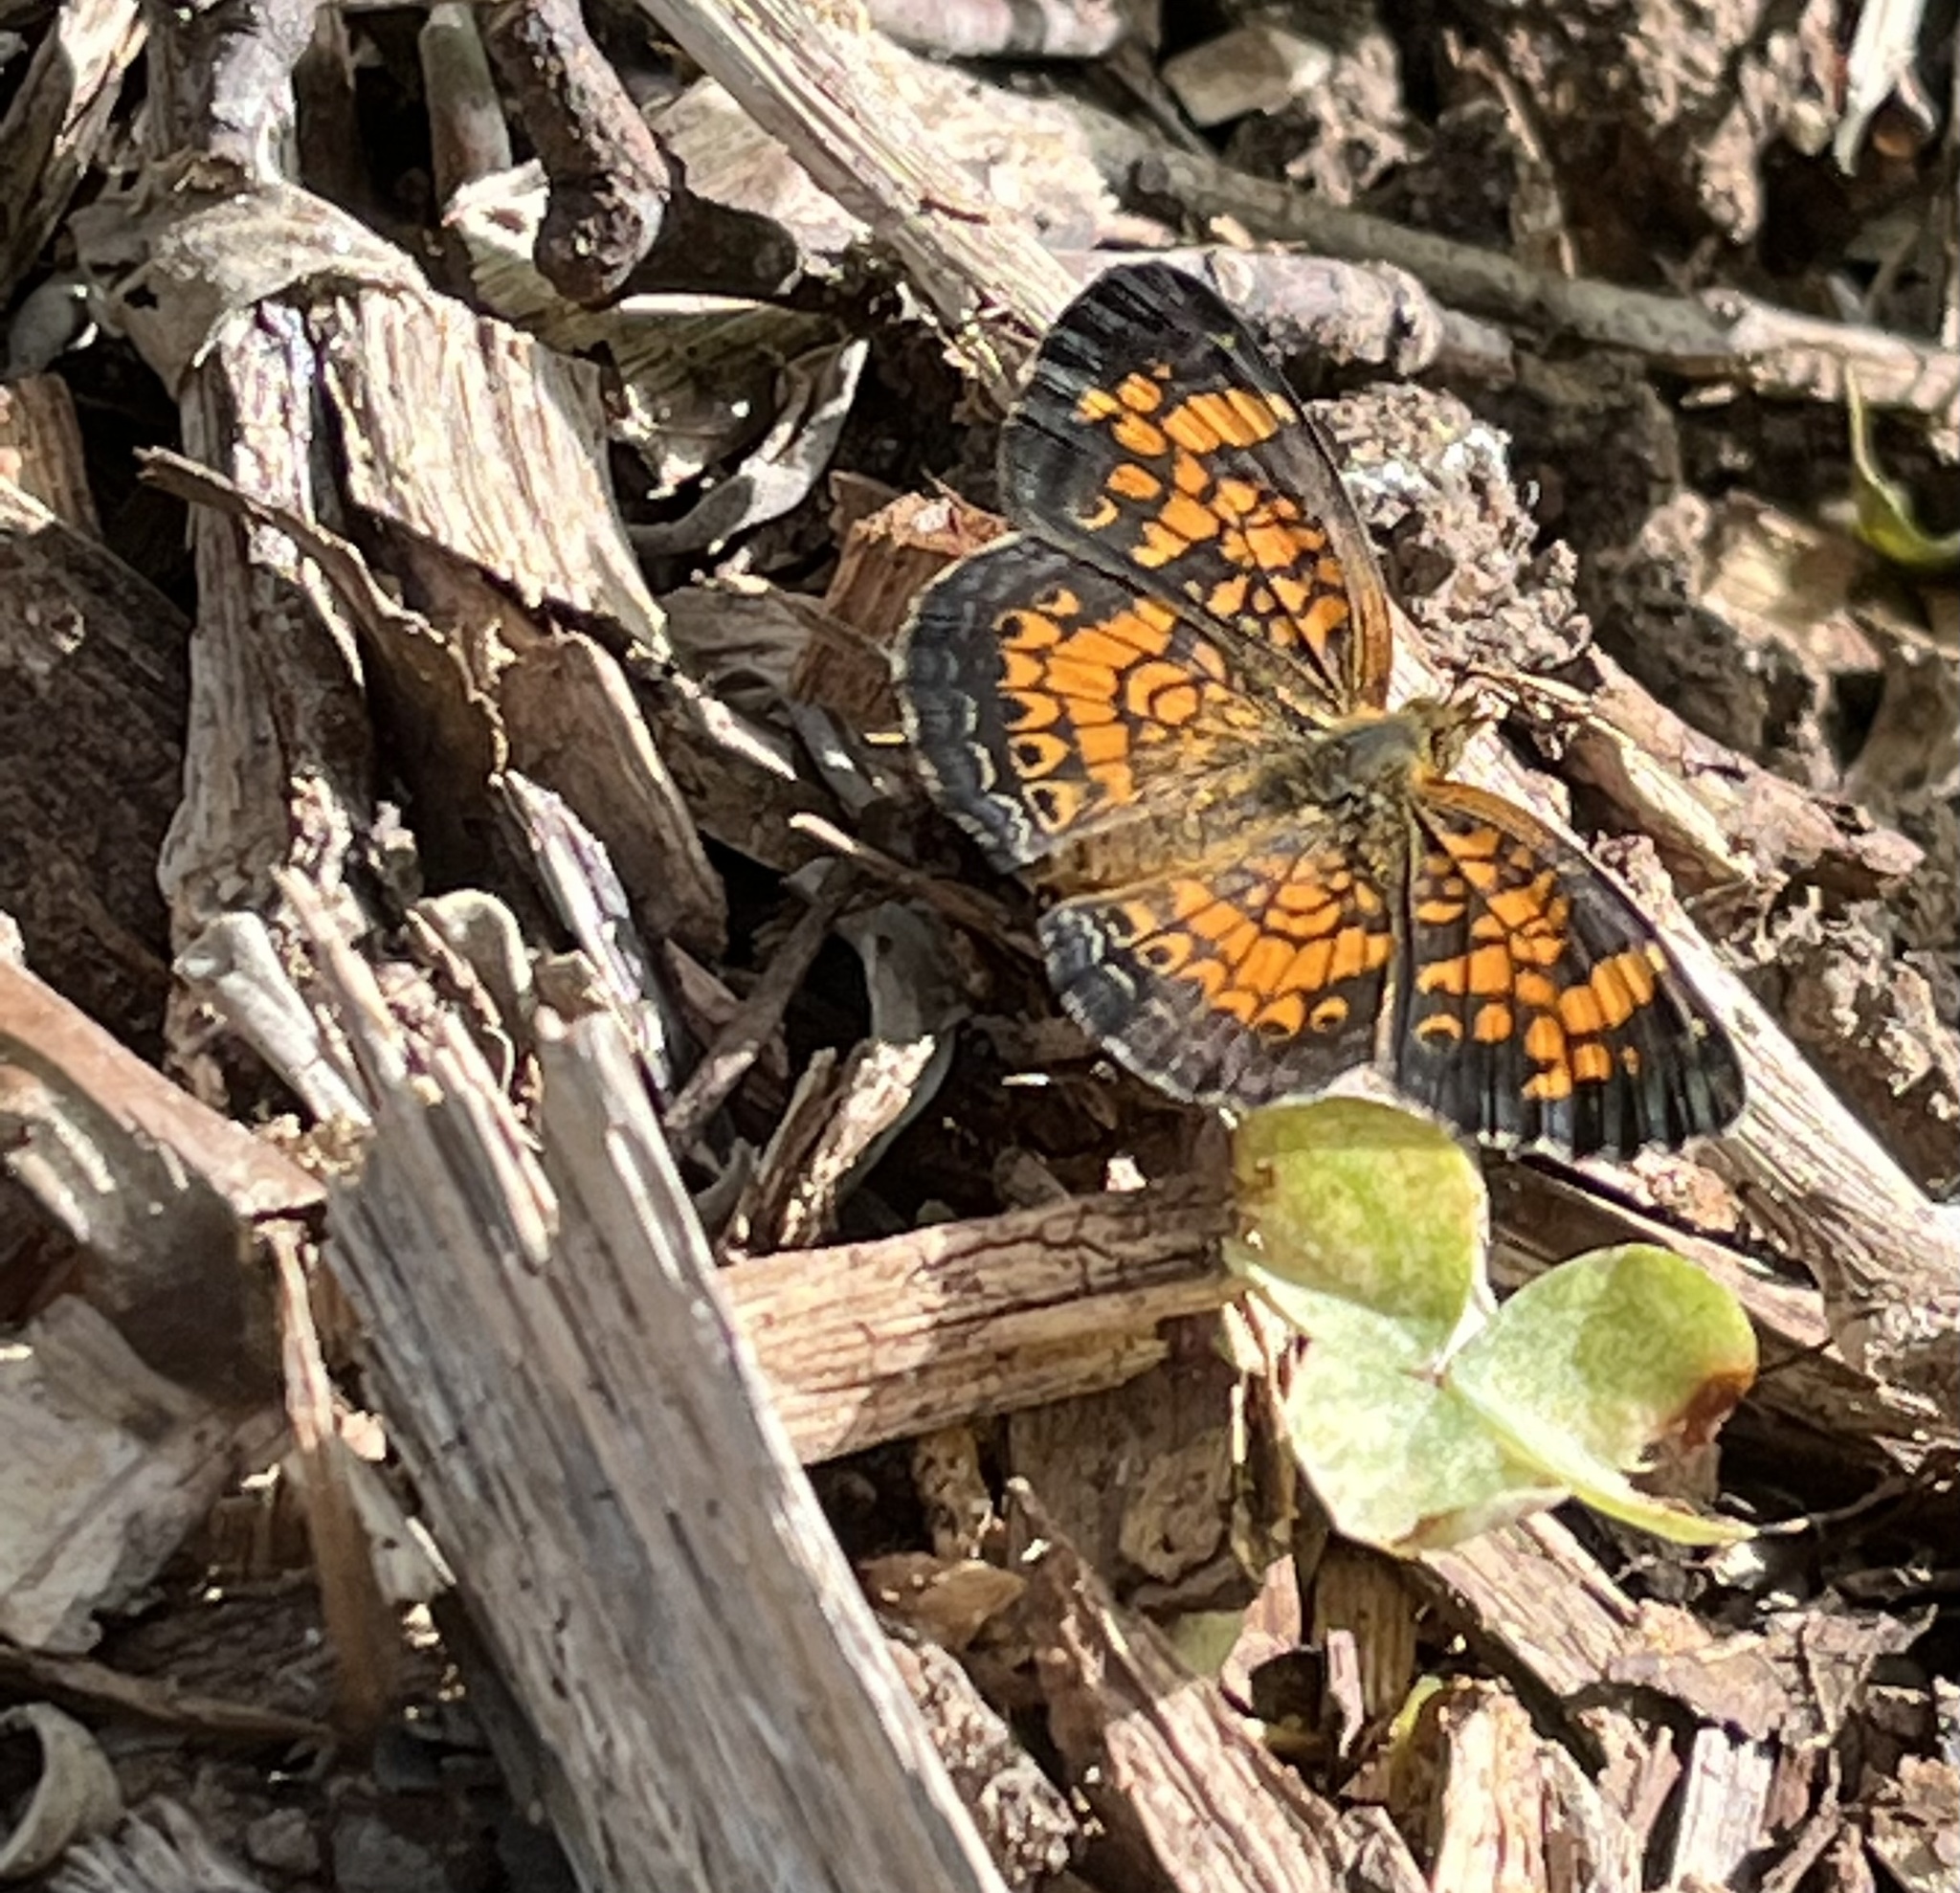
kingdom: Animalia
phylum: Arthropoda
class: Insecta
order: Lepidoptera
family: Nymphalidae
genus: Phyciodes
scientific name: Phyciodes tharos
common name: Pearl crescent
